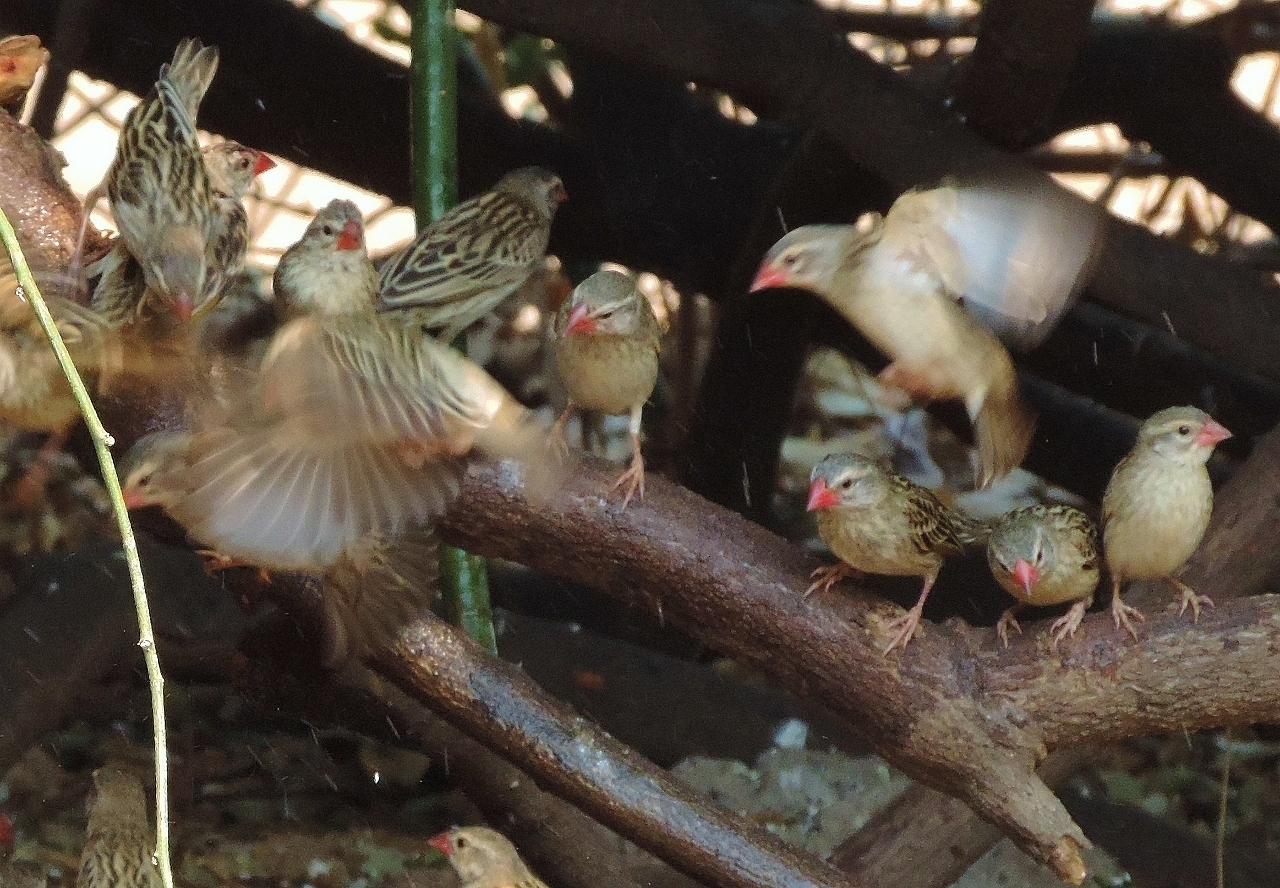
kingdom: Animalia
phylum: Chordata
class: Aves
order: Passeriformes
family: Ploceidae
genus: Quelea
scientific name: Quelea quelea
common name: Red-billed quelea
